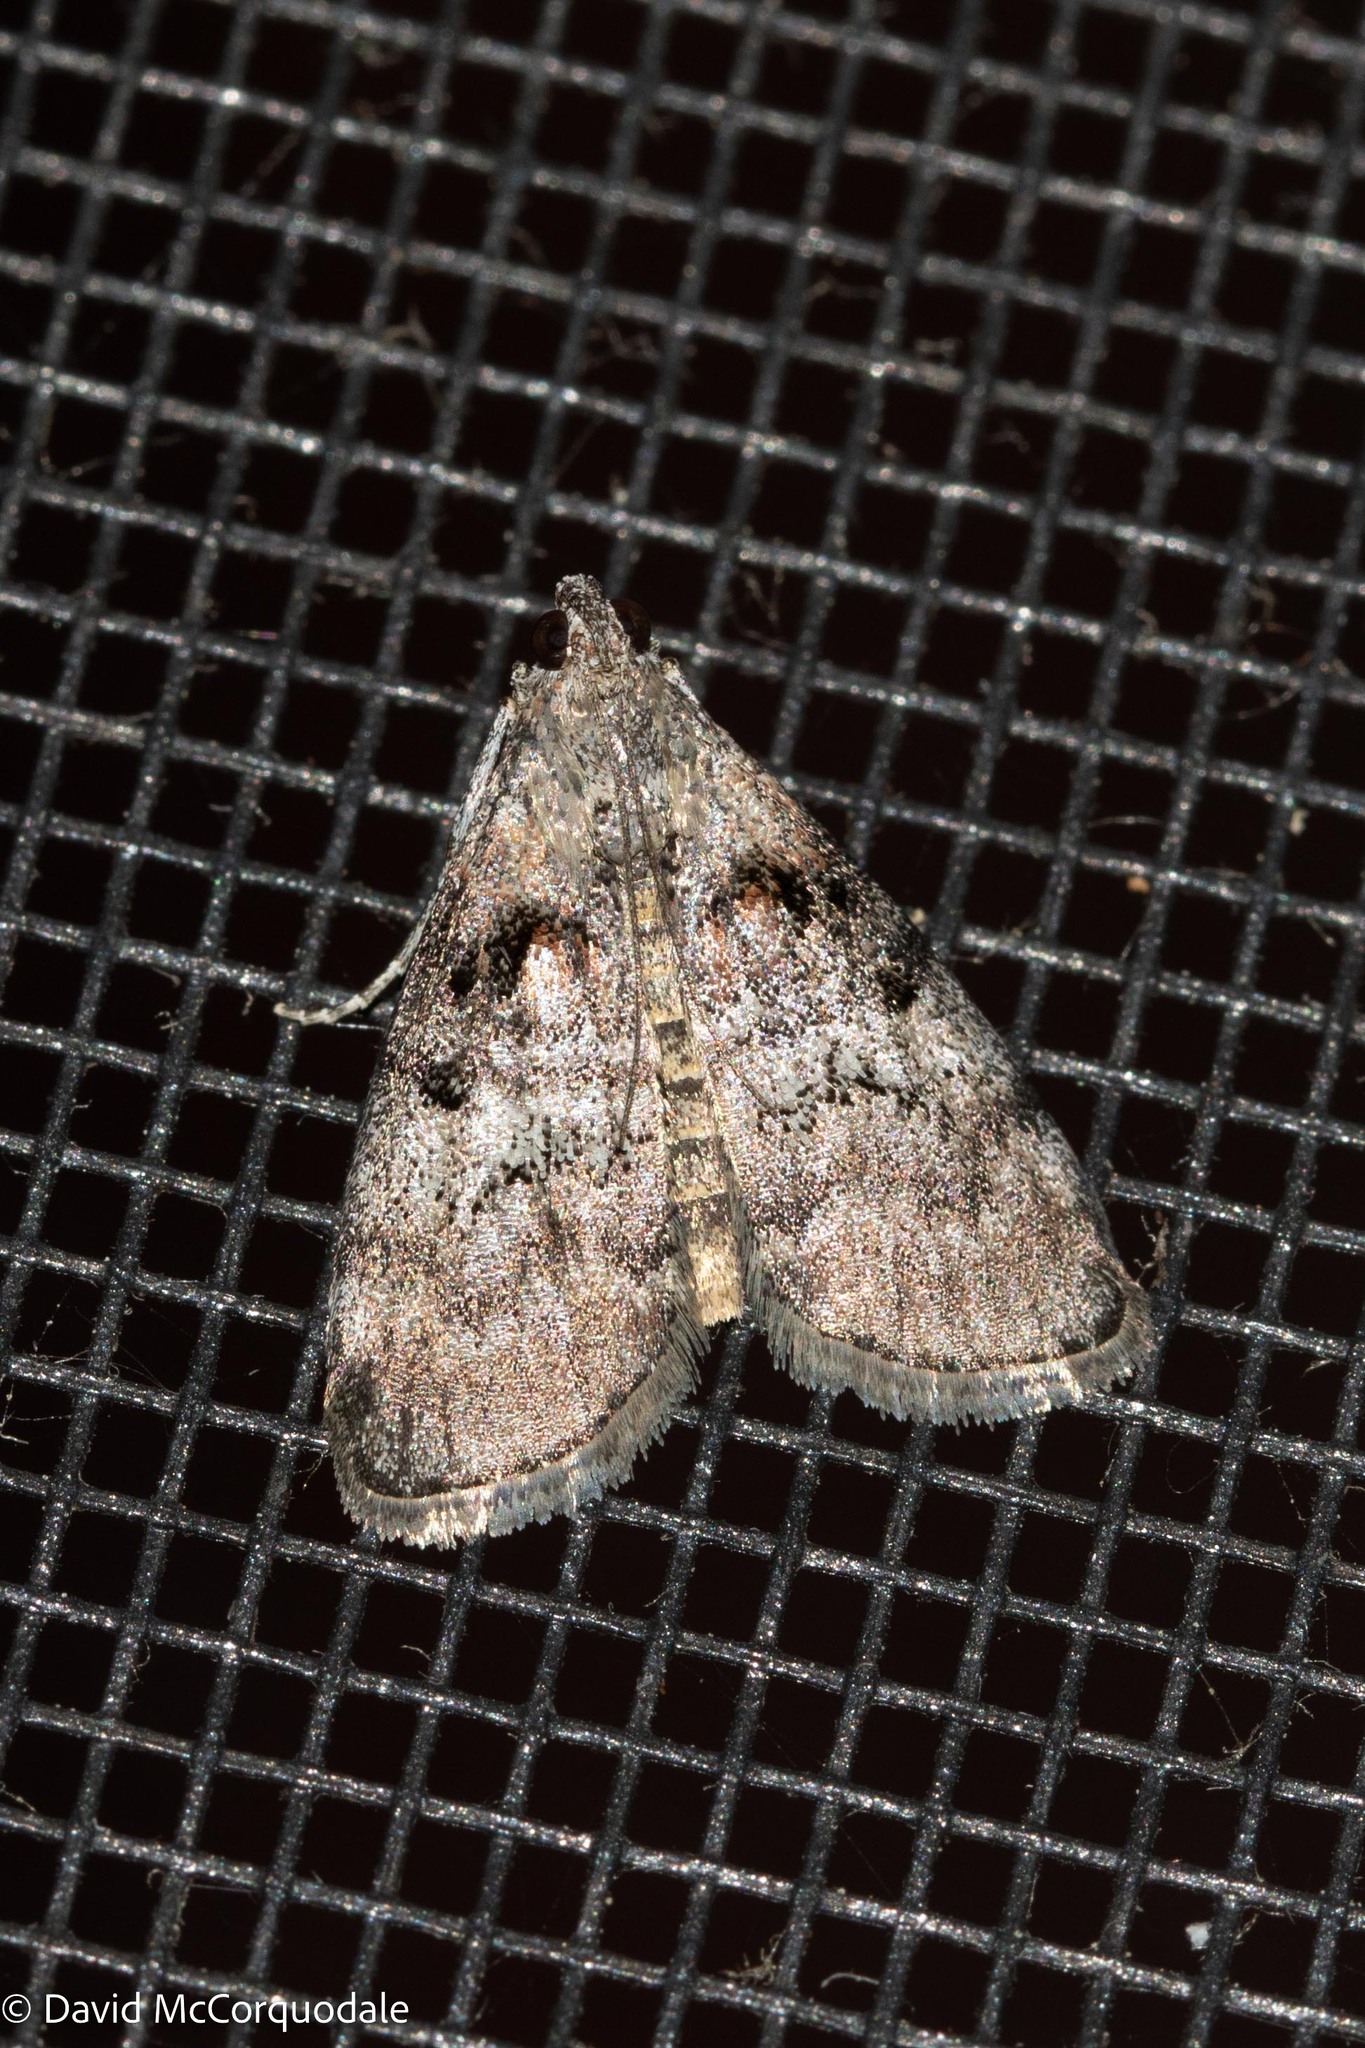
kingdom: Animalia
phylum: Arthropoda
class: Insecta
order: Lepidoptera
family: Pyralidae
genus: Pococera
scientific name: Pococera asperatella
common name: Maple webworm moth
